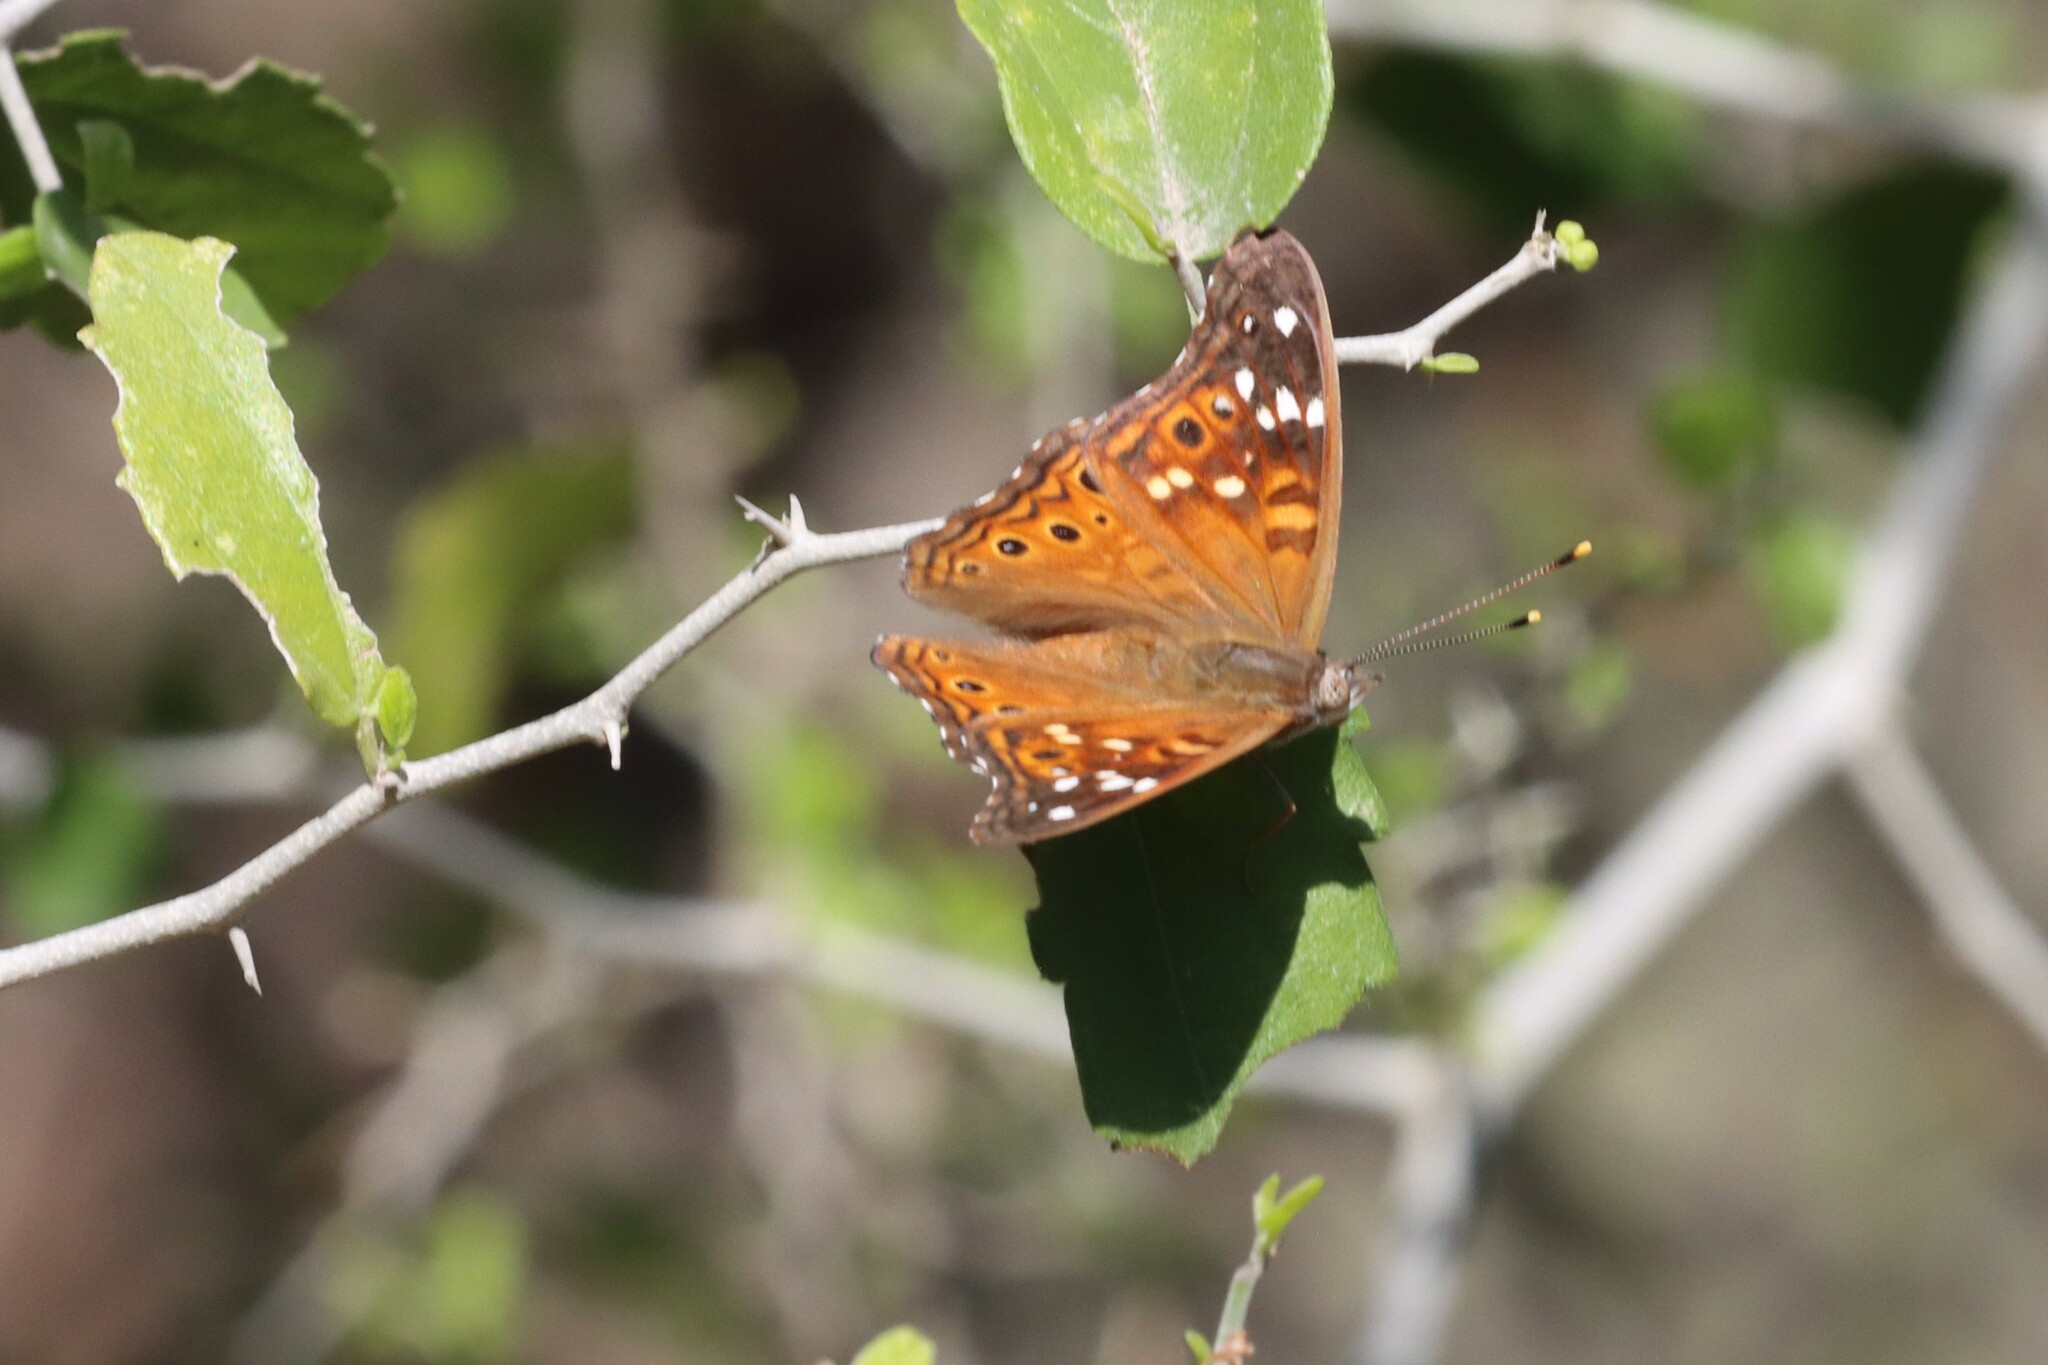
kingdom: Animalia
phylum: Arthropoda
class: Insecta
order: Lepidoptera
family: Nymphalidae
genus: Asterocampa
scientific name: Asterocampa leilia
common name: Empress leilia
